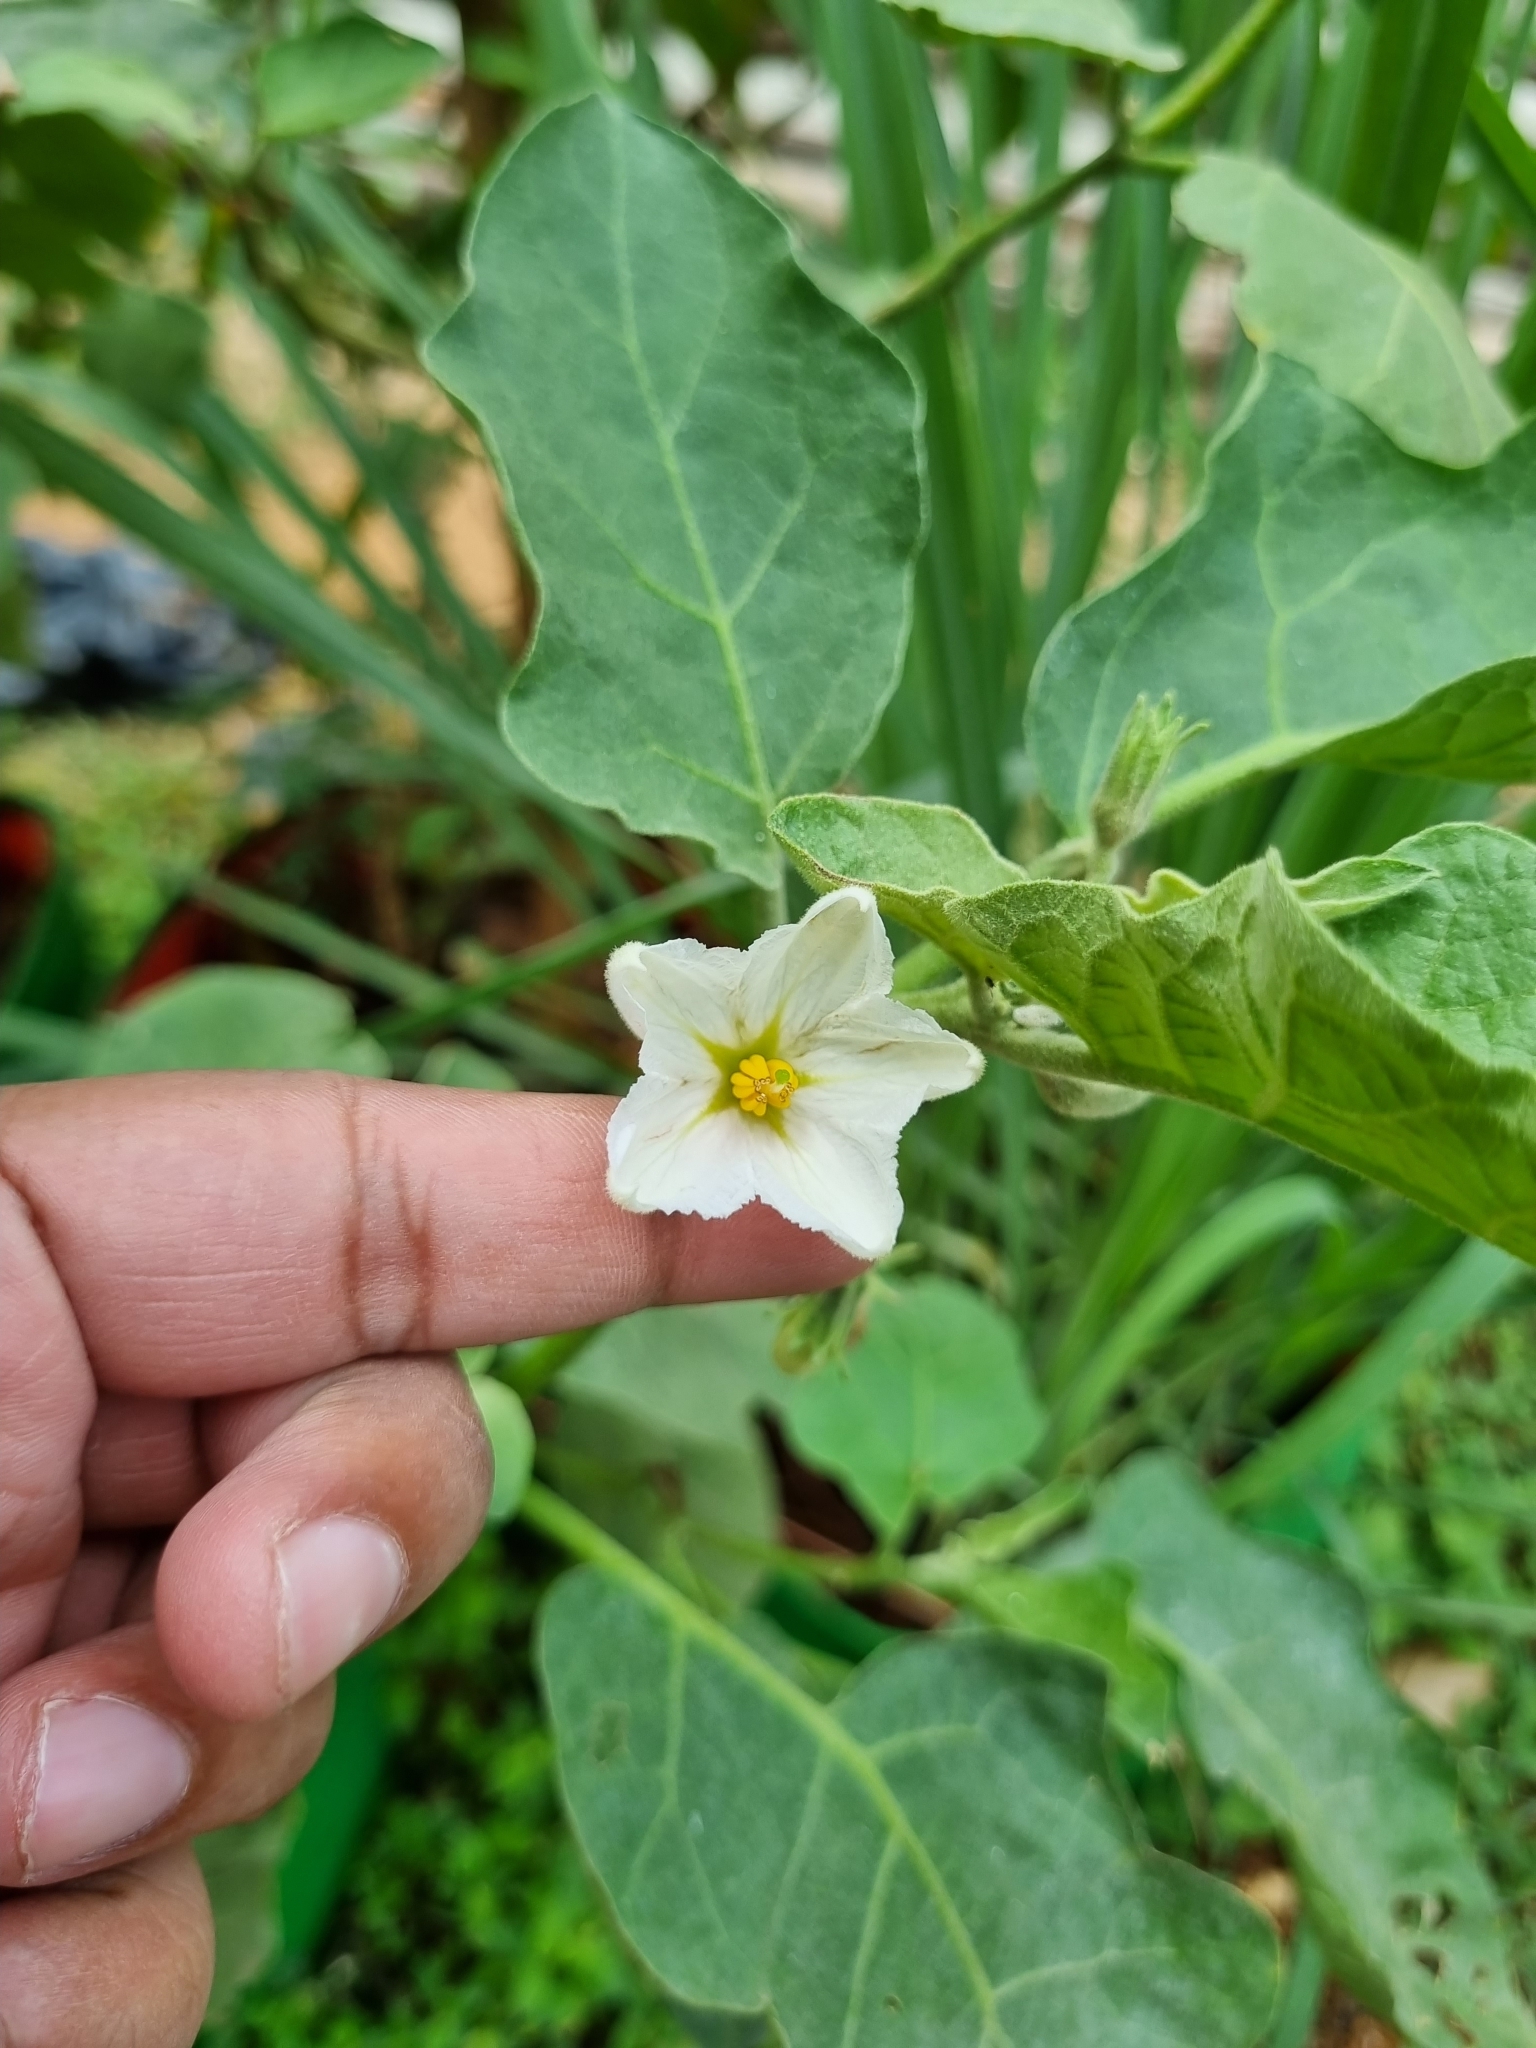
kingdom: Plantae
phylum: Tracheophyta
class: Magnoliopsida
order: Solanales
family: Solanaceae
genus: Solanum
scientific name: Solanum melongena
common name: Eggplant
